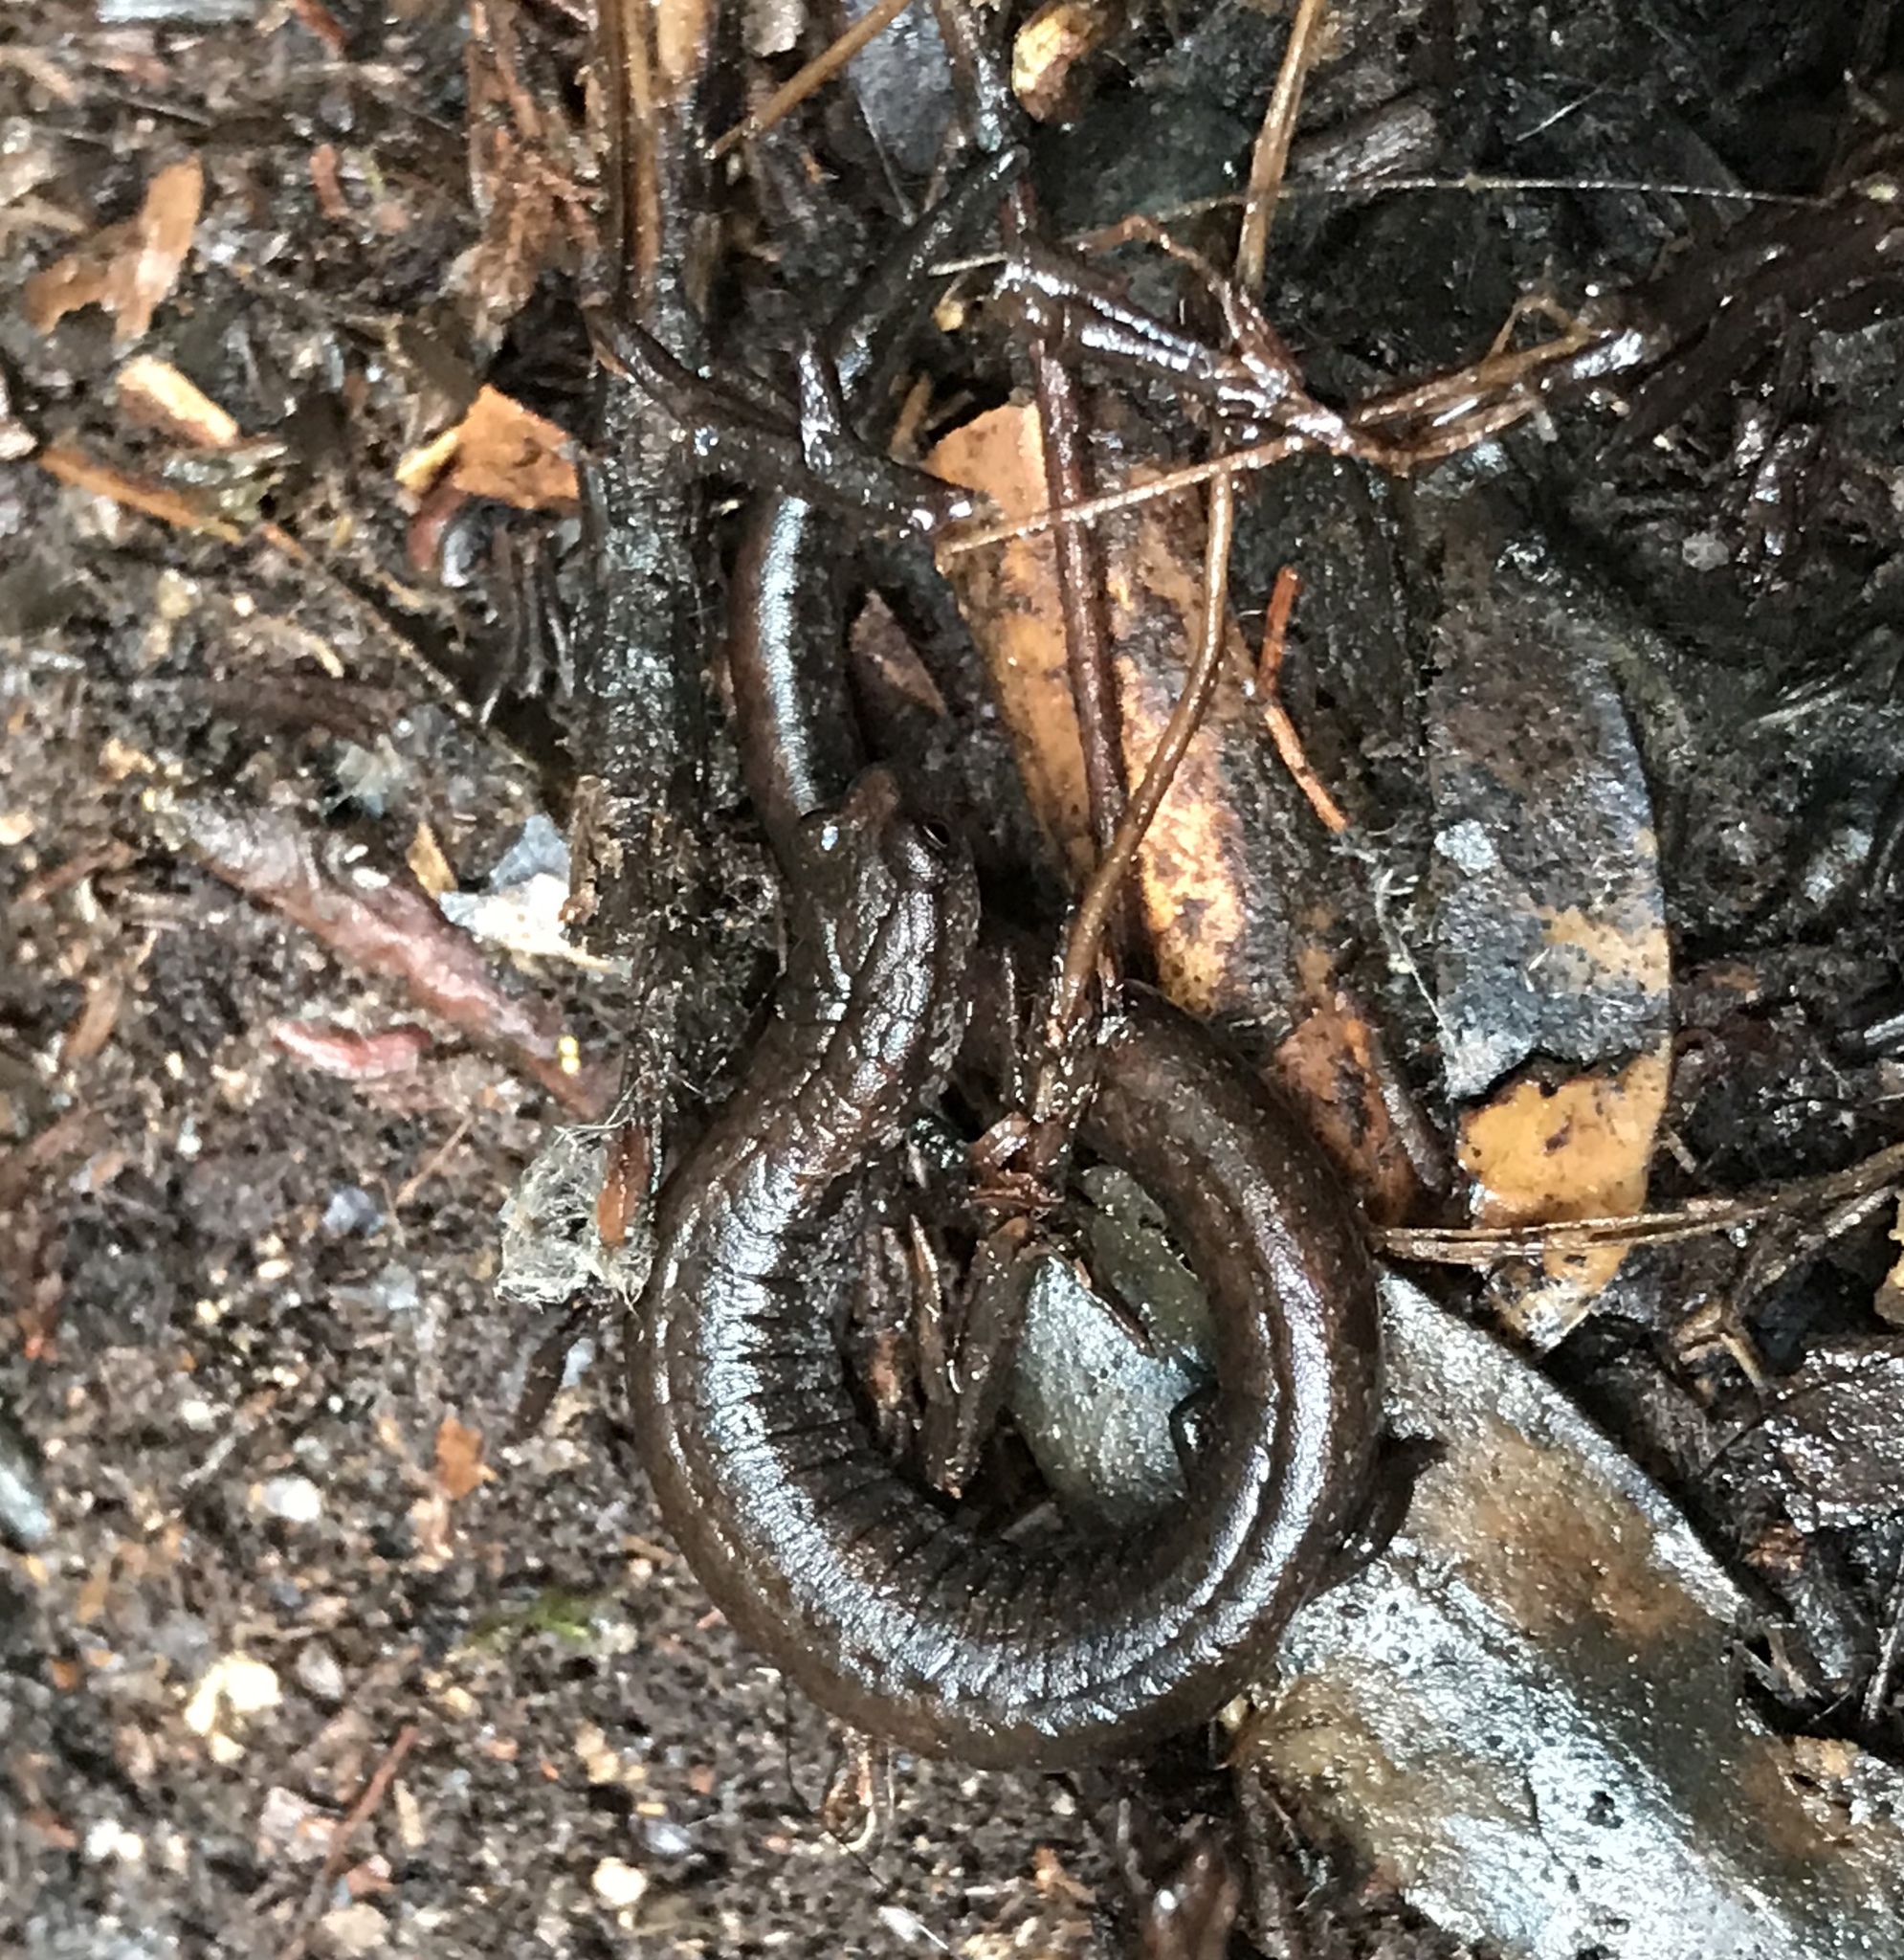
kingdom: Animalia
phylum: Chordata
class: Amphibia
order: Caudata
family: Plethodontidae
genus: Batrachoseps
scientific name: Batrachoseps attenuatus
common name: California slender salamander
